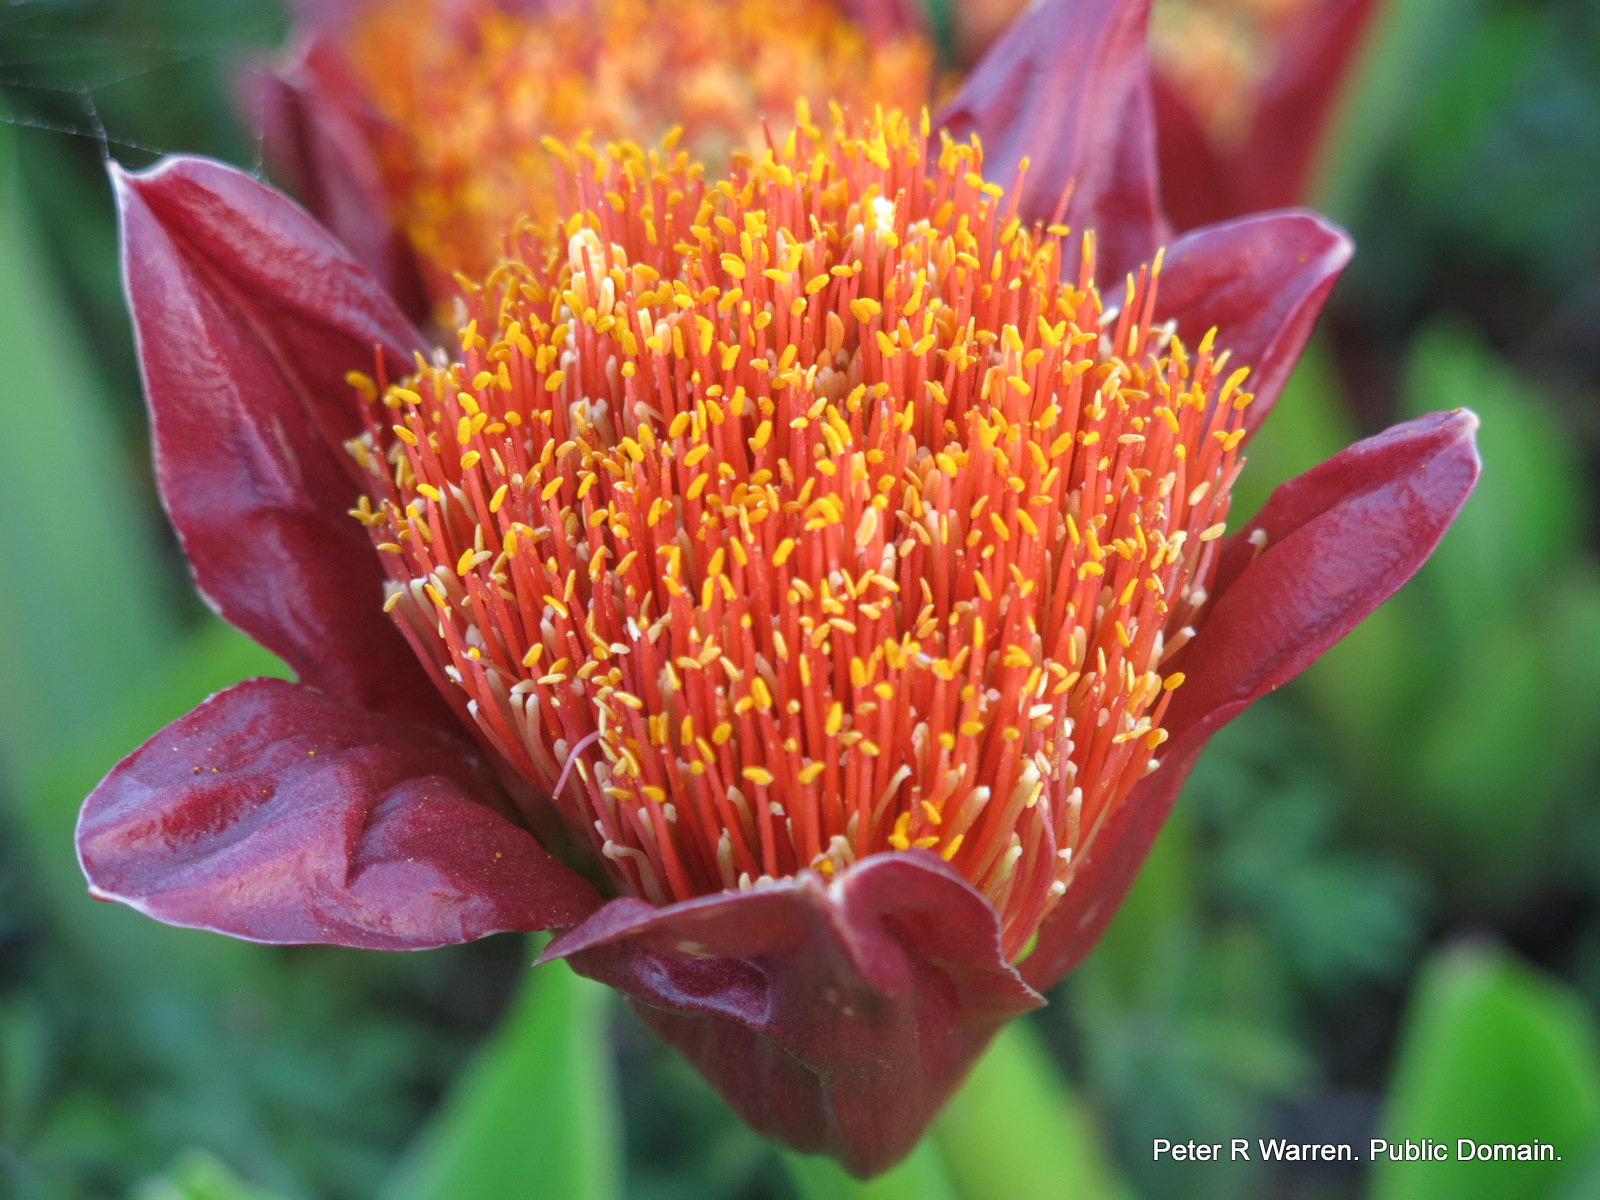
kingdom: Plantae
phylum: Tracheophyta
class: Liliopsida
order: Asparagales
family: Amaryllidaceae
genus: Scadoxus
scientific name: Scadoxus puniceus
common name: Royal-paintbrush
